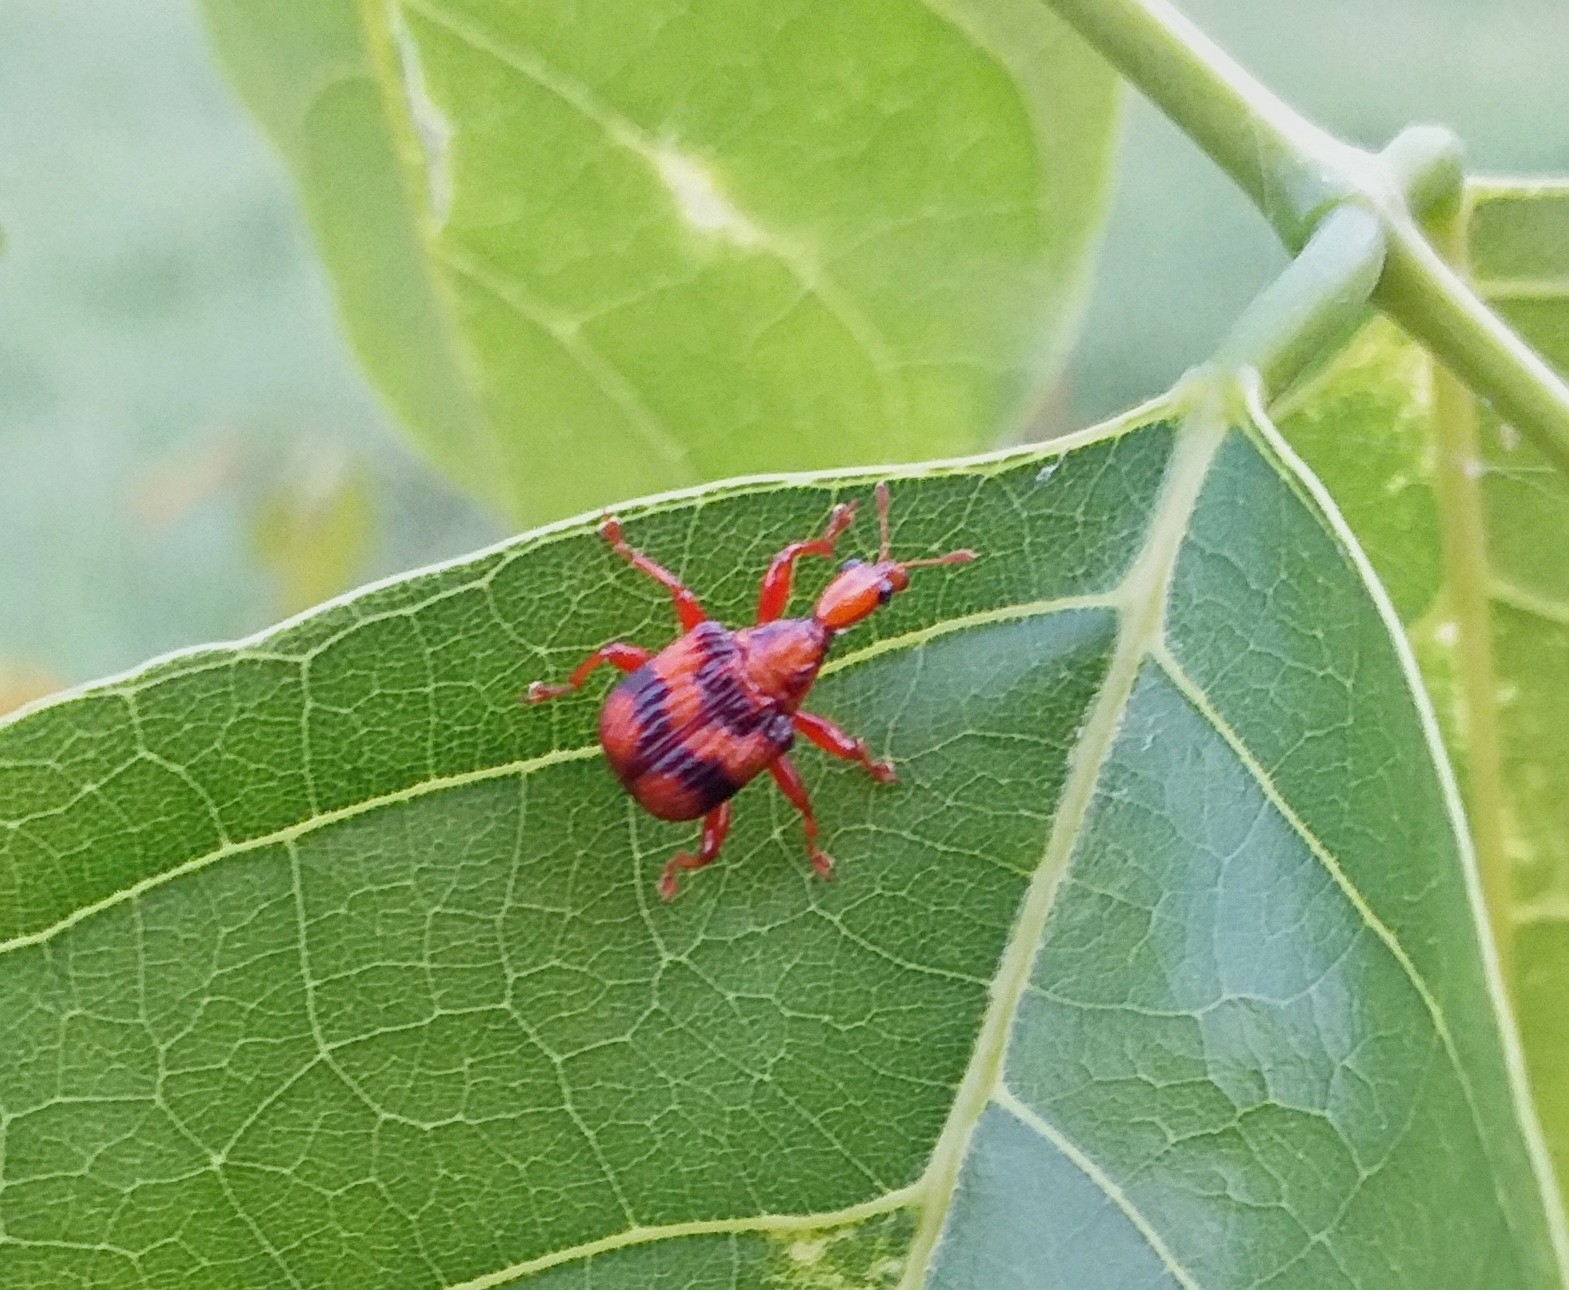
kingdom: Animalia
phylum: Arthropoda
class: Insecta
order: Coleoptera
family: Attelabidae
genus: Strigapoderus
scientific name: Strigapoderus tranquebaricus
